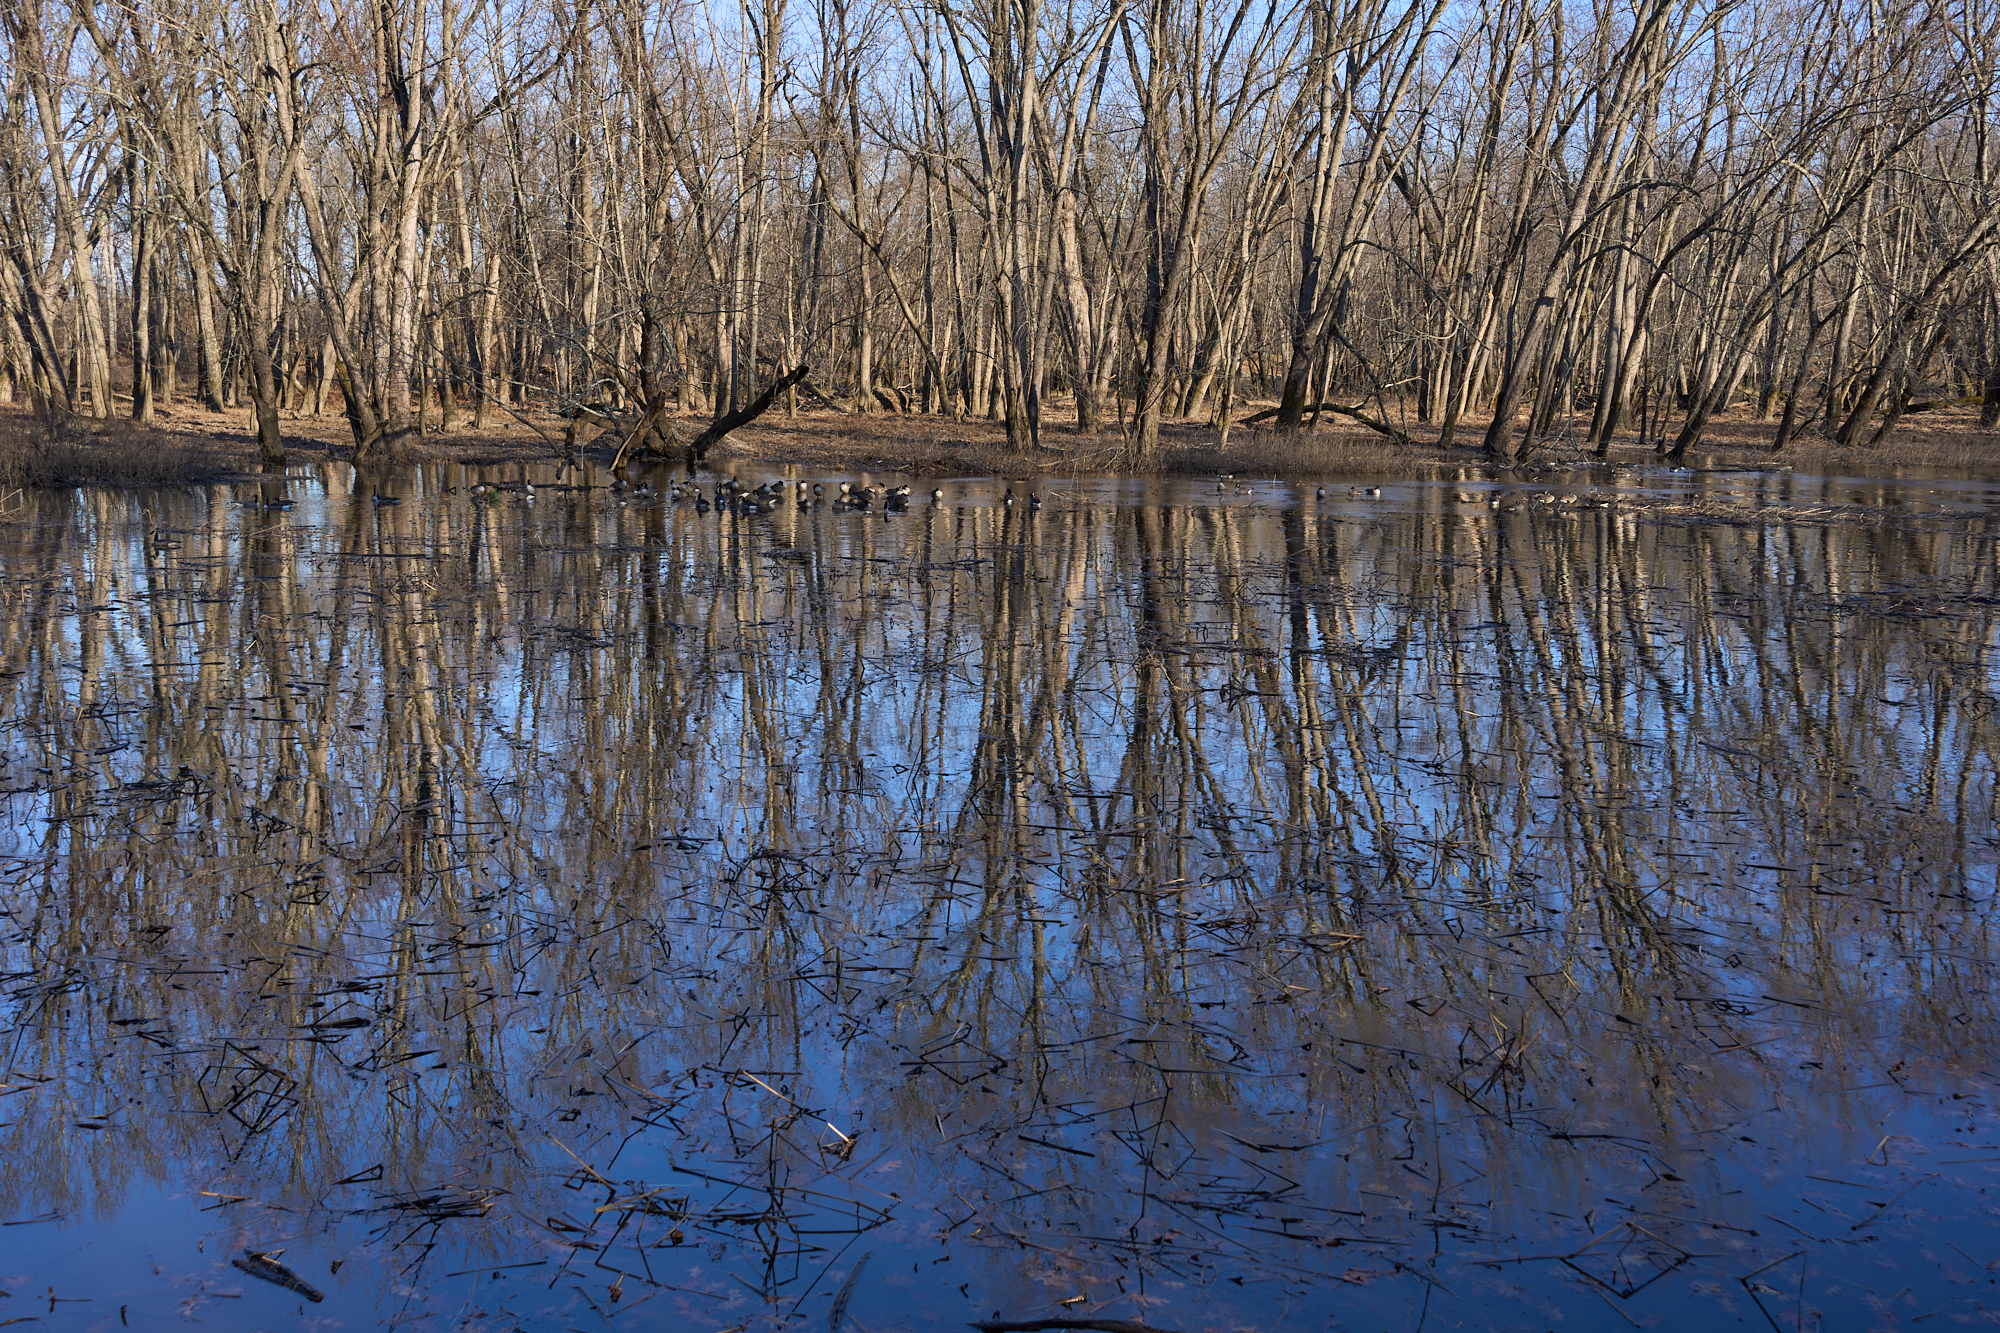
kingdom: Animalia
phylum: Chordata
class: Aves
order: Anseriformes
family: Anatidae
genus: Branta
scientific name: Branta canadensis
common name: Canada goose
